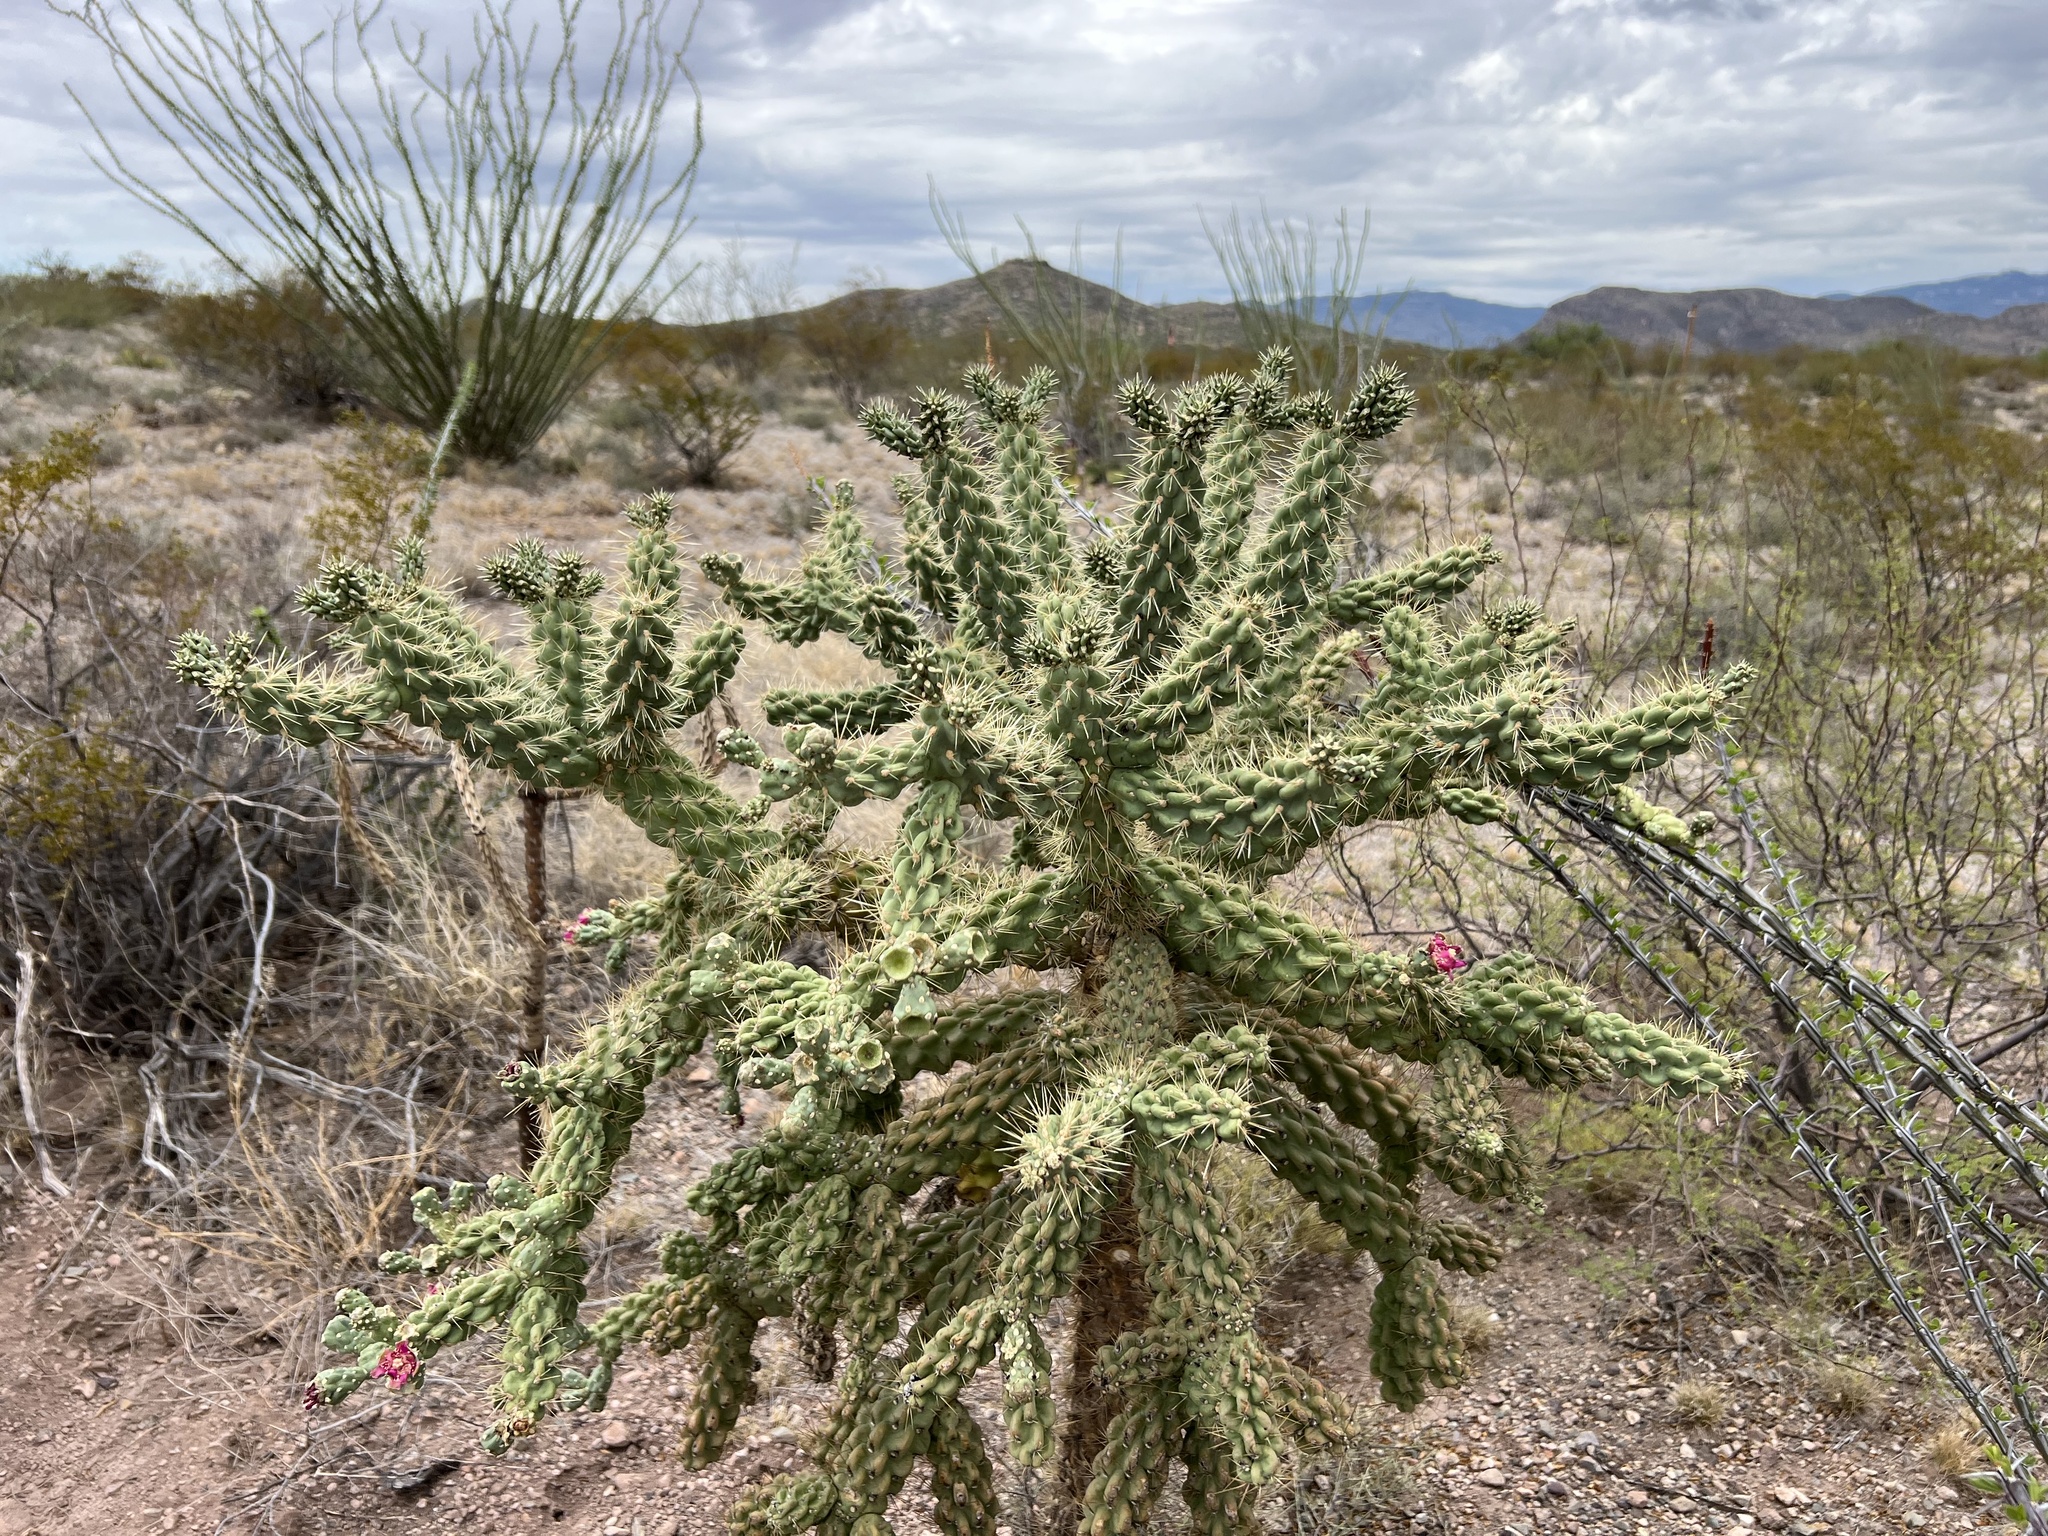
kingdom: Plantae
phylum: Tracheophyta
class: Magnoliopsida
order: Caryophyllales
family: Cactaceae
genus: Cylindropuntia
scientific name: Cylindropuntia fulgida
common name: Jumping cholla
